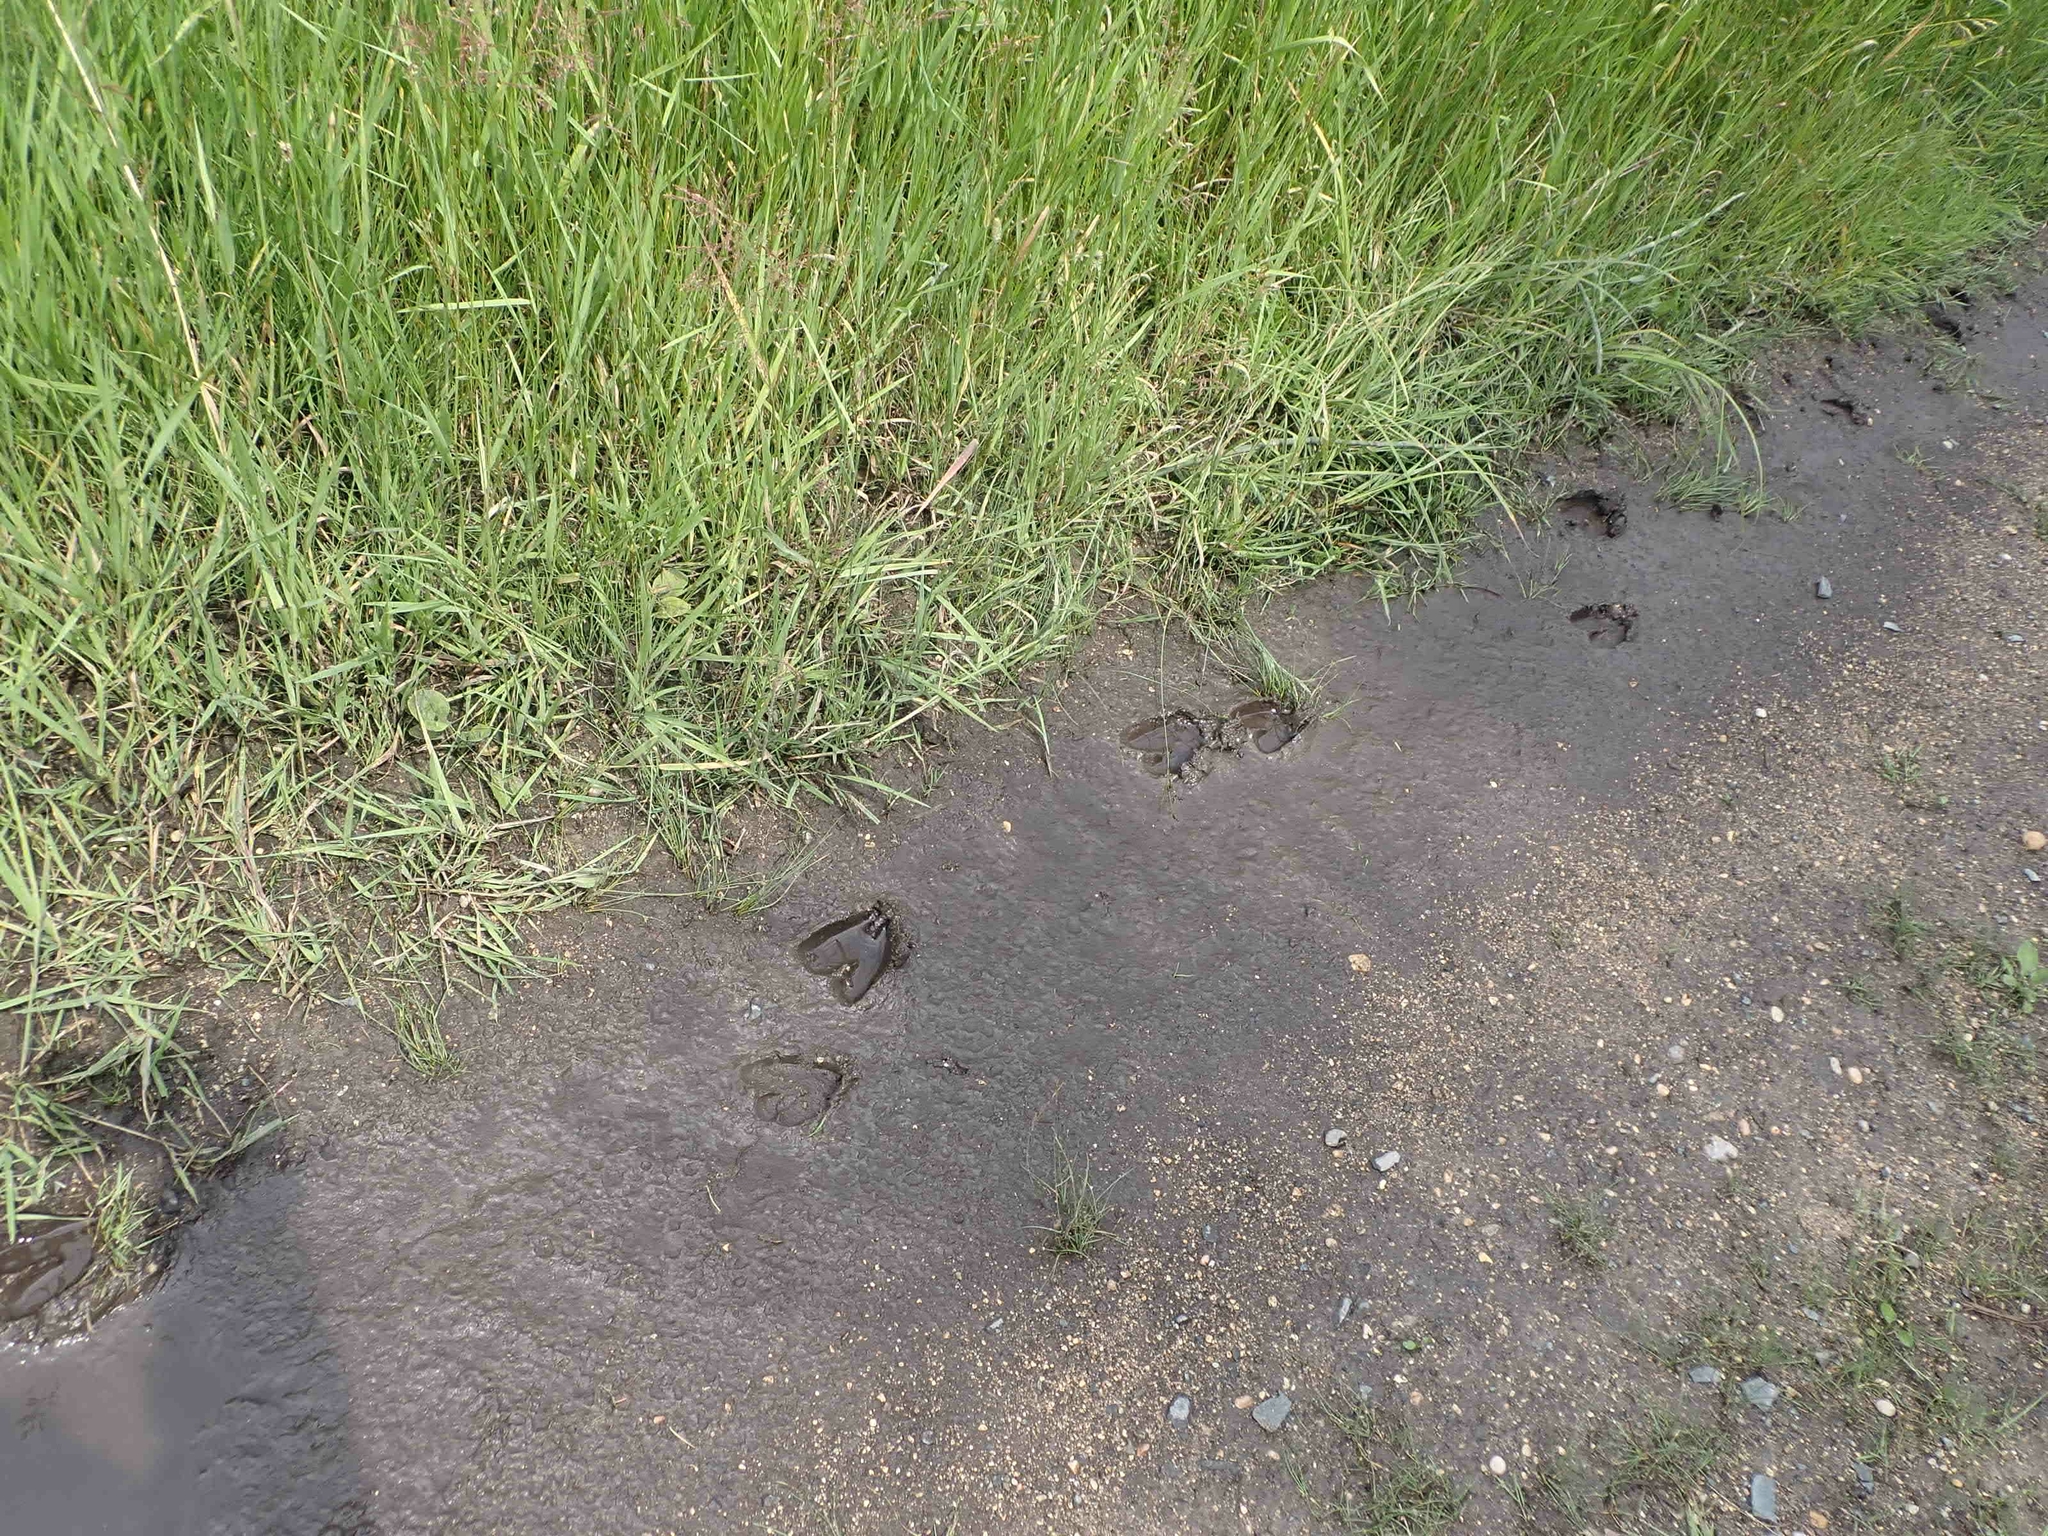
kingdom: Animalia
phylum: Chordata
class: Mammalia
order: Artiodactyla
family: Cervidae
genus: Odocoileus
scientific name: Odocoileus virginianus
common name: White-tailed deer
